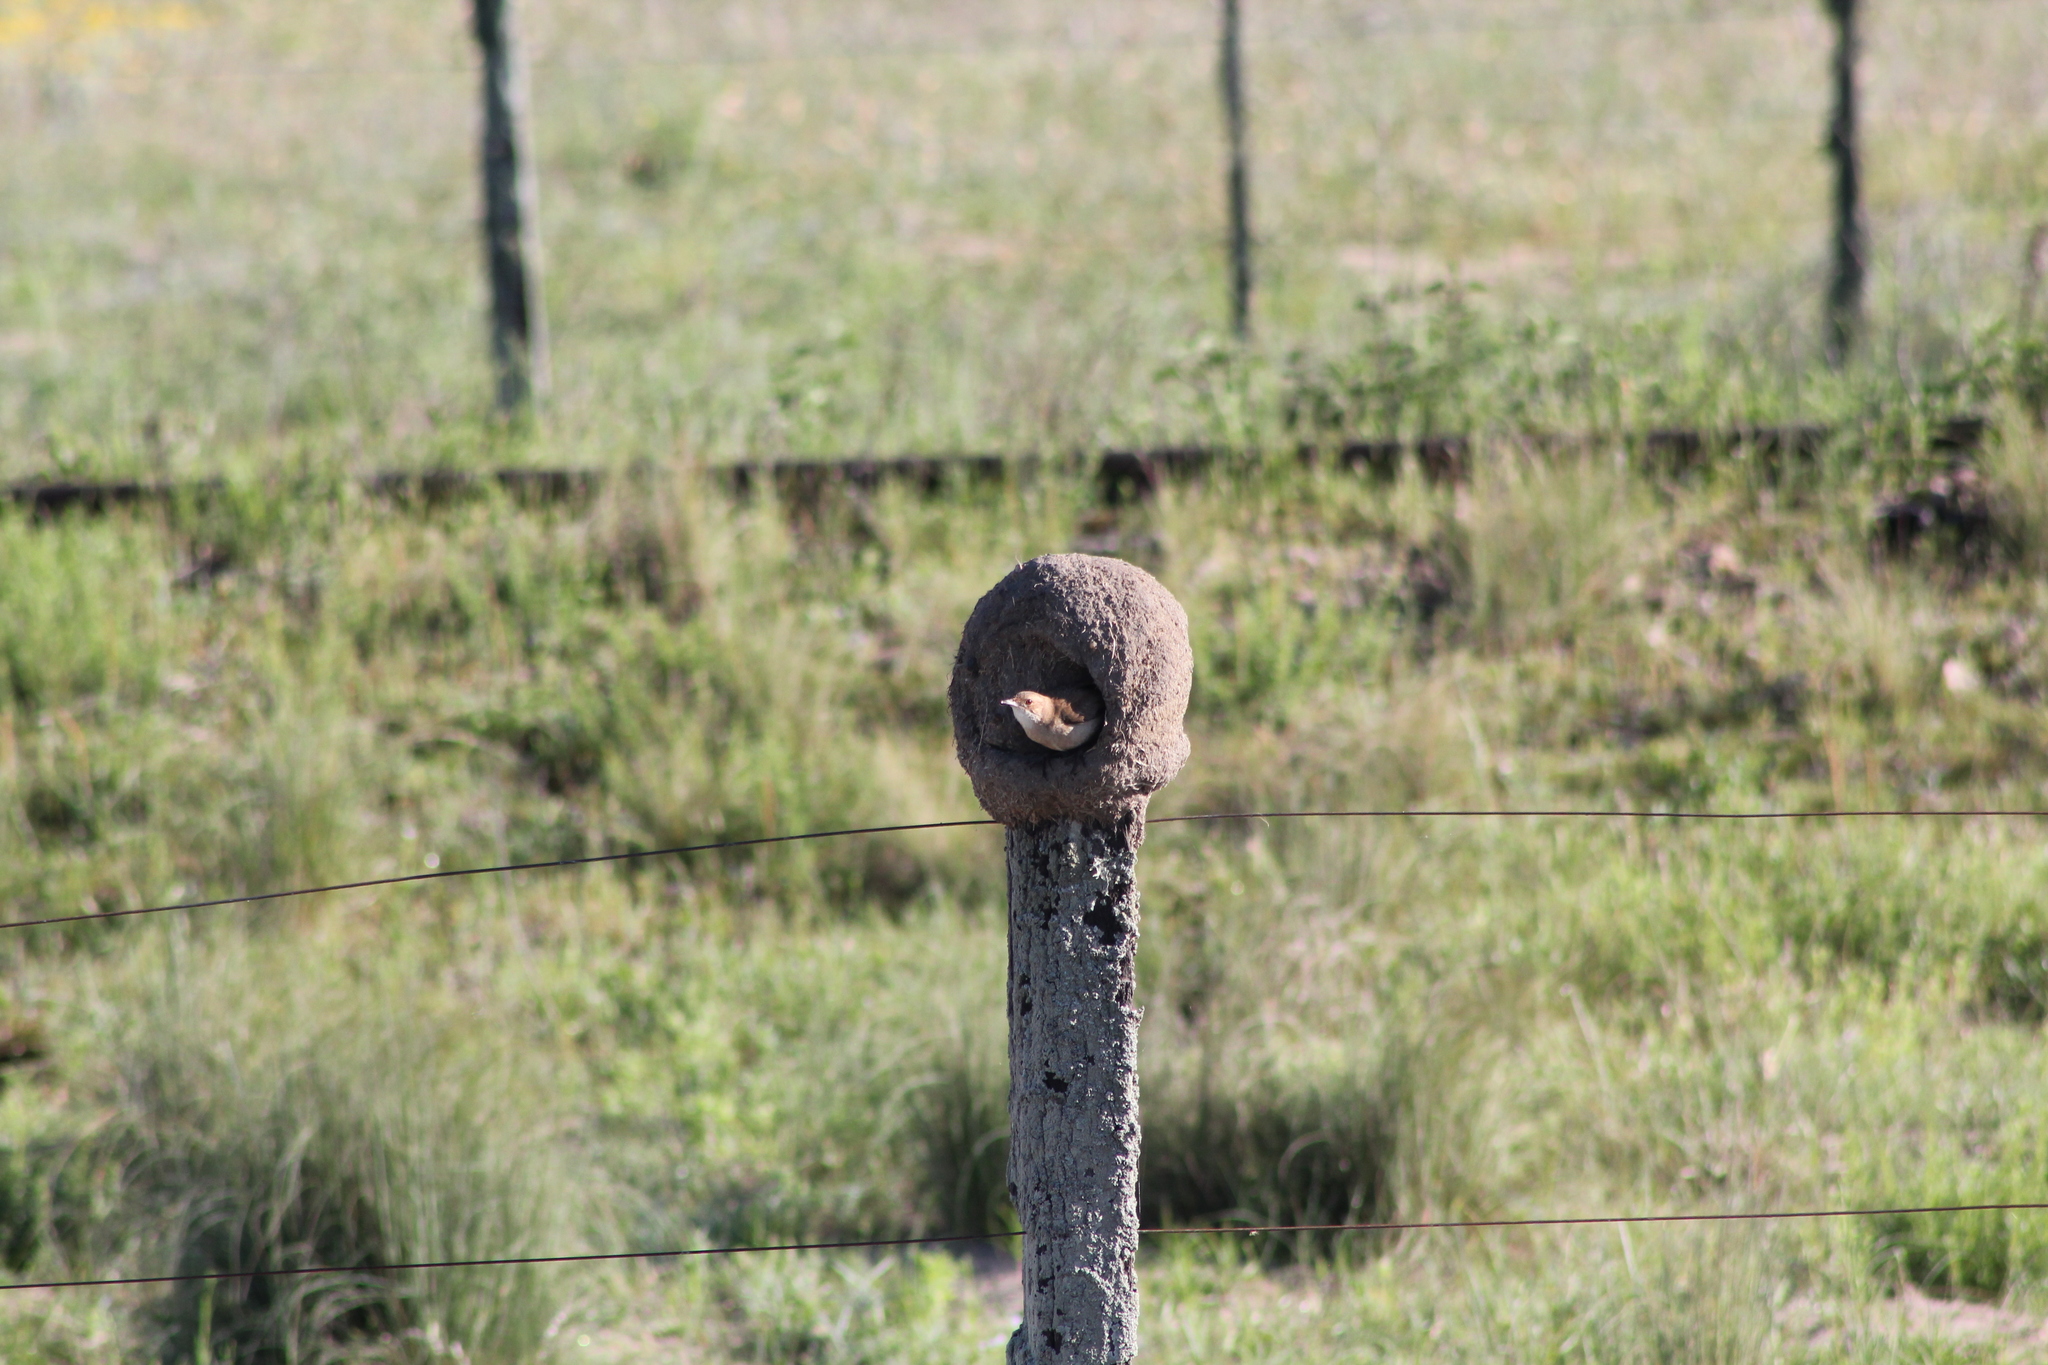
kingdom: Animalia
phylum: Chordata
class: Aves
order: Passeriformes
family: Furnariidae
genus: Furnarius
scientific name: Furnarius rufus
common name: Rufous hornero
